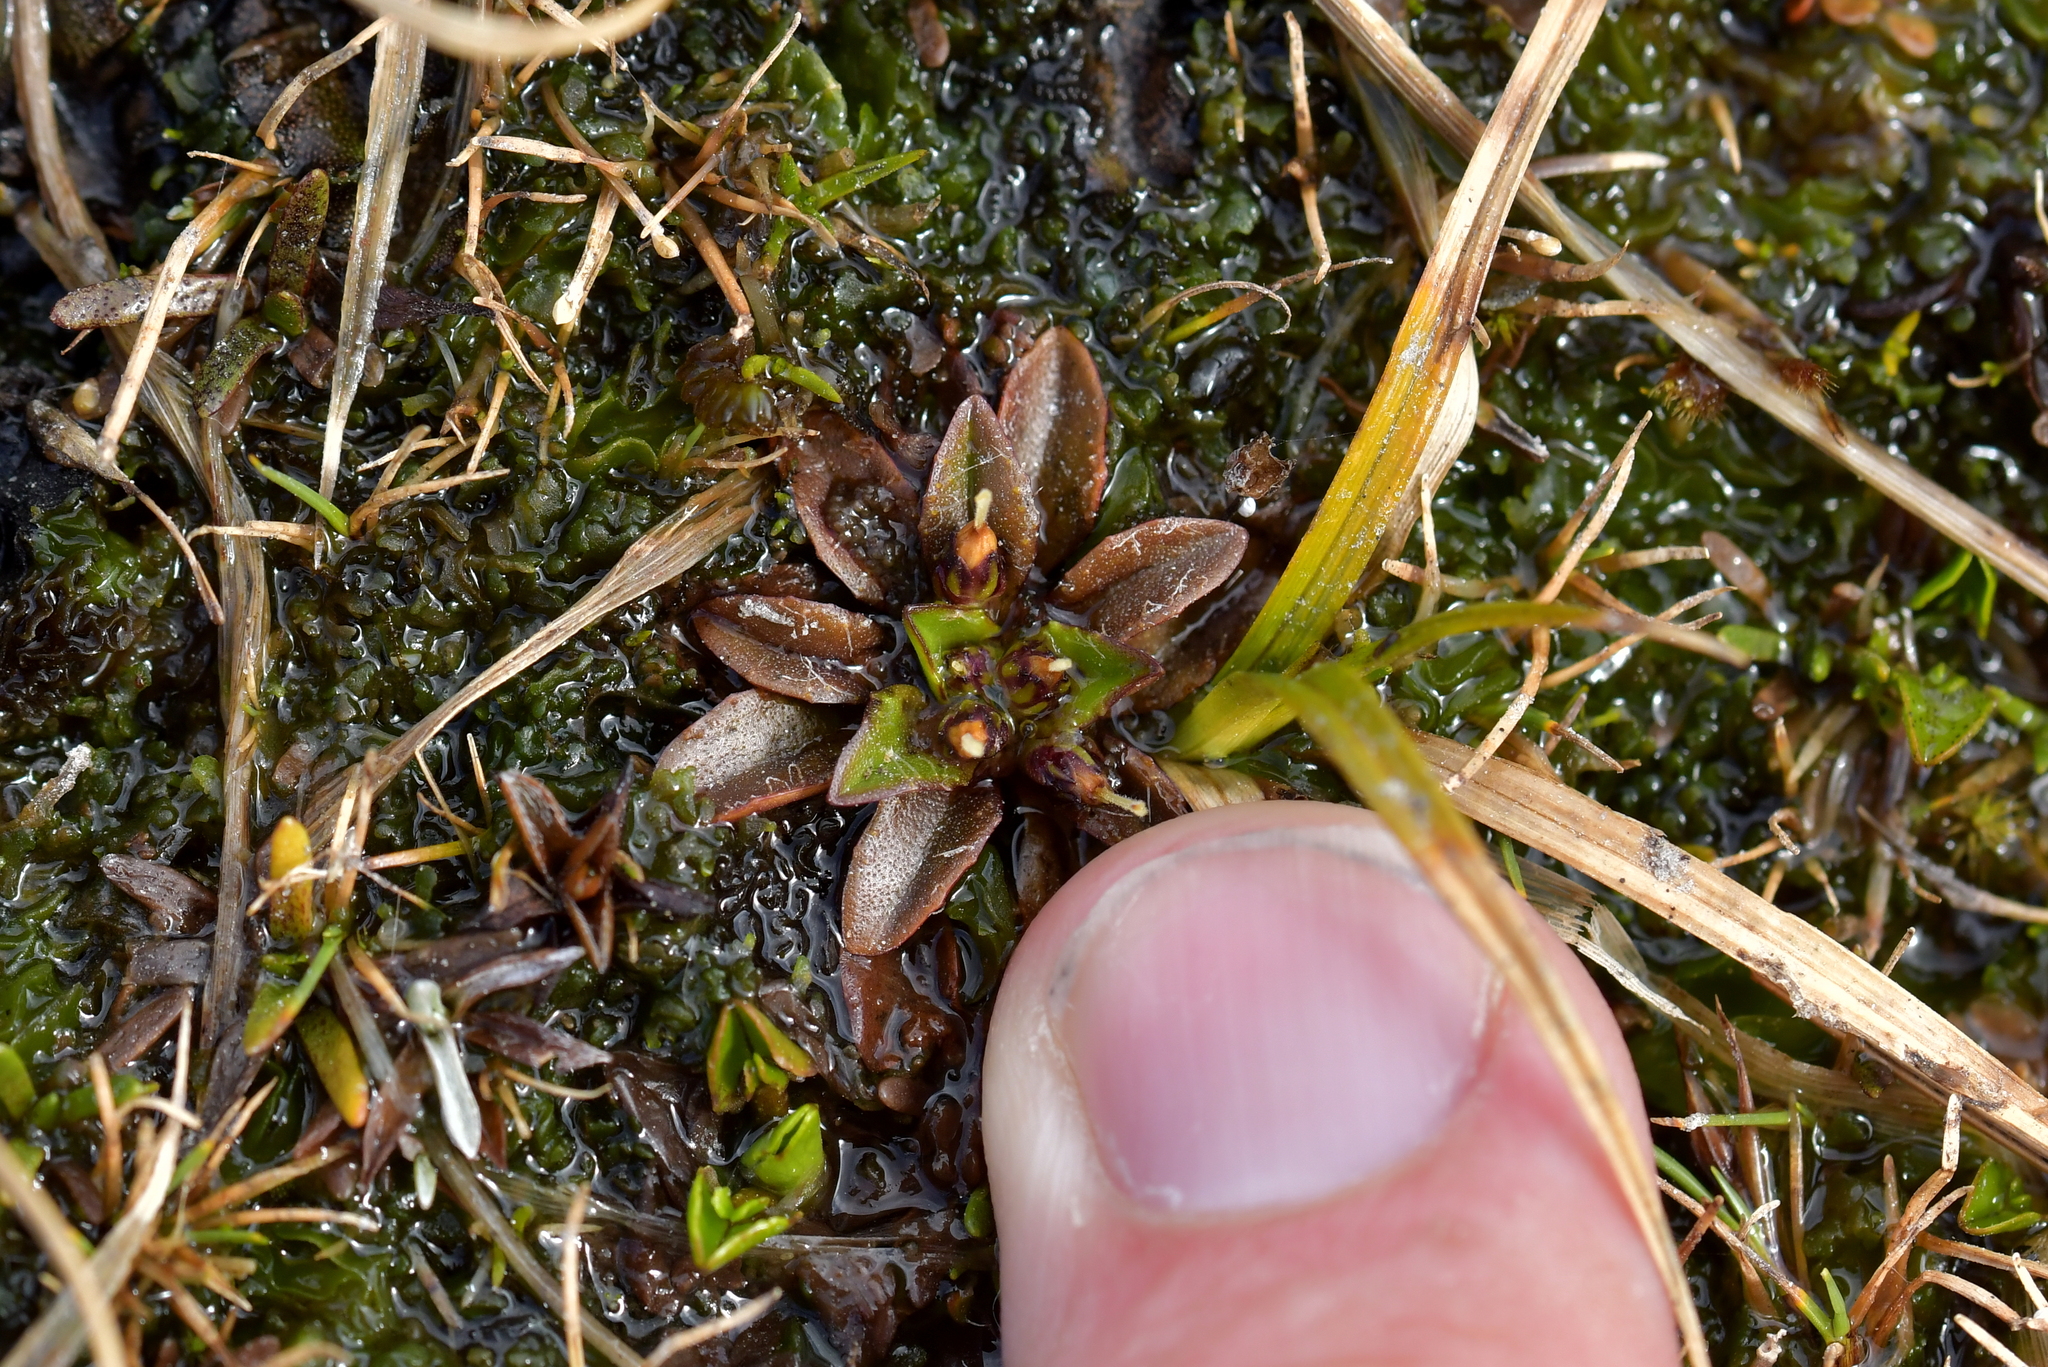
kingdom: Plantae
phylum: Tracheophyta
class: Magnoliopsida
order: Lamiales
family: Plantaginaceae
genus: Plantago
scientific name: Plantago triandra
